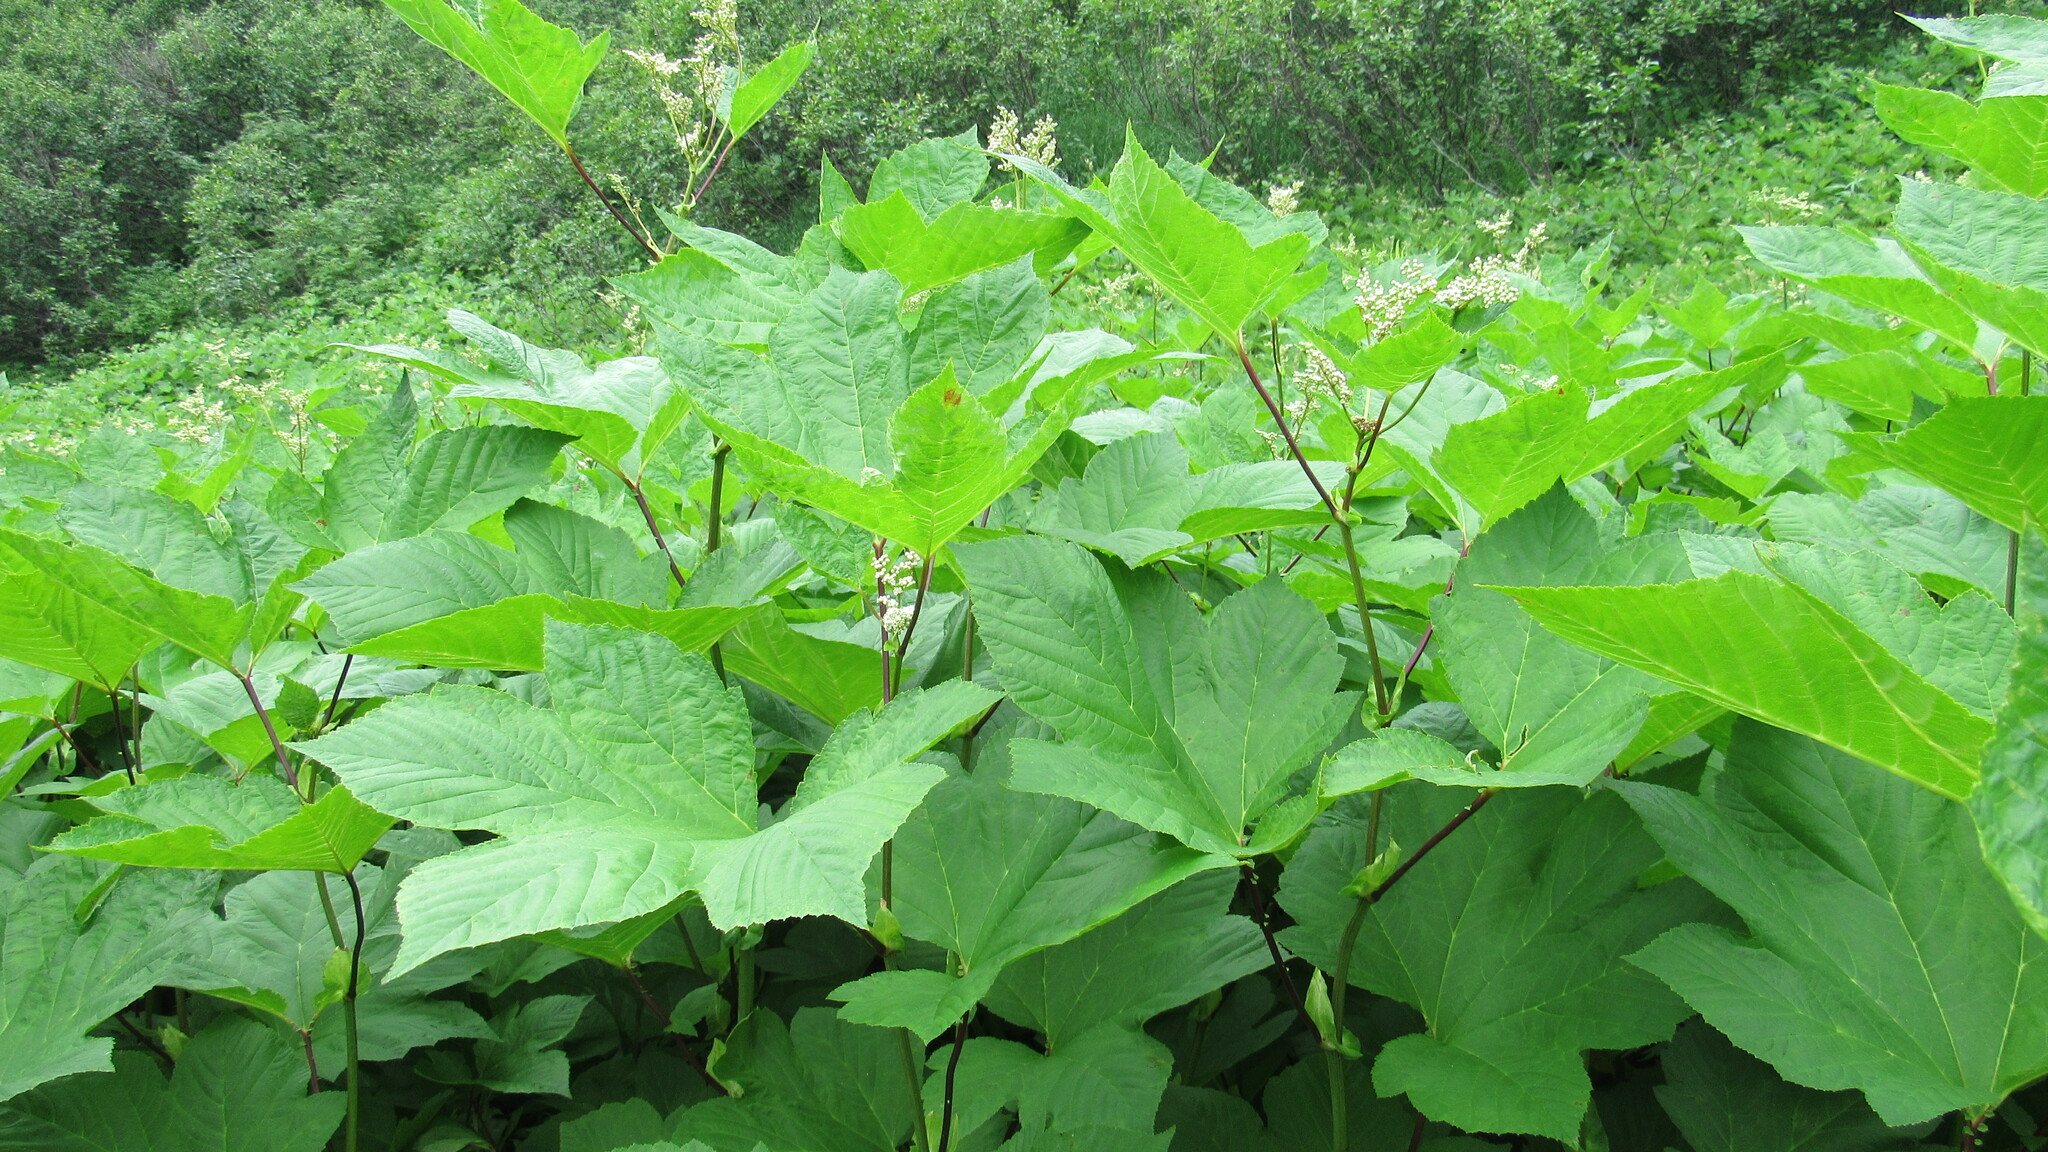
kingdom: Plantae
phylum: Tracheophyta
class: Magnoliopsida
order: Rosales
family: Rosaceae
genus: Filipendula
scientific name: Filipendula camtschatica
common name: Giant meadowsweet
